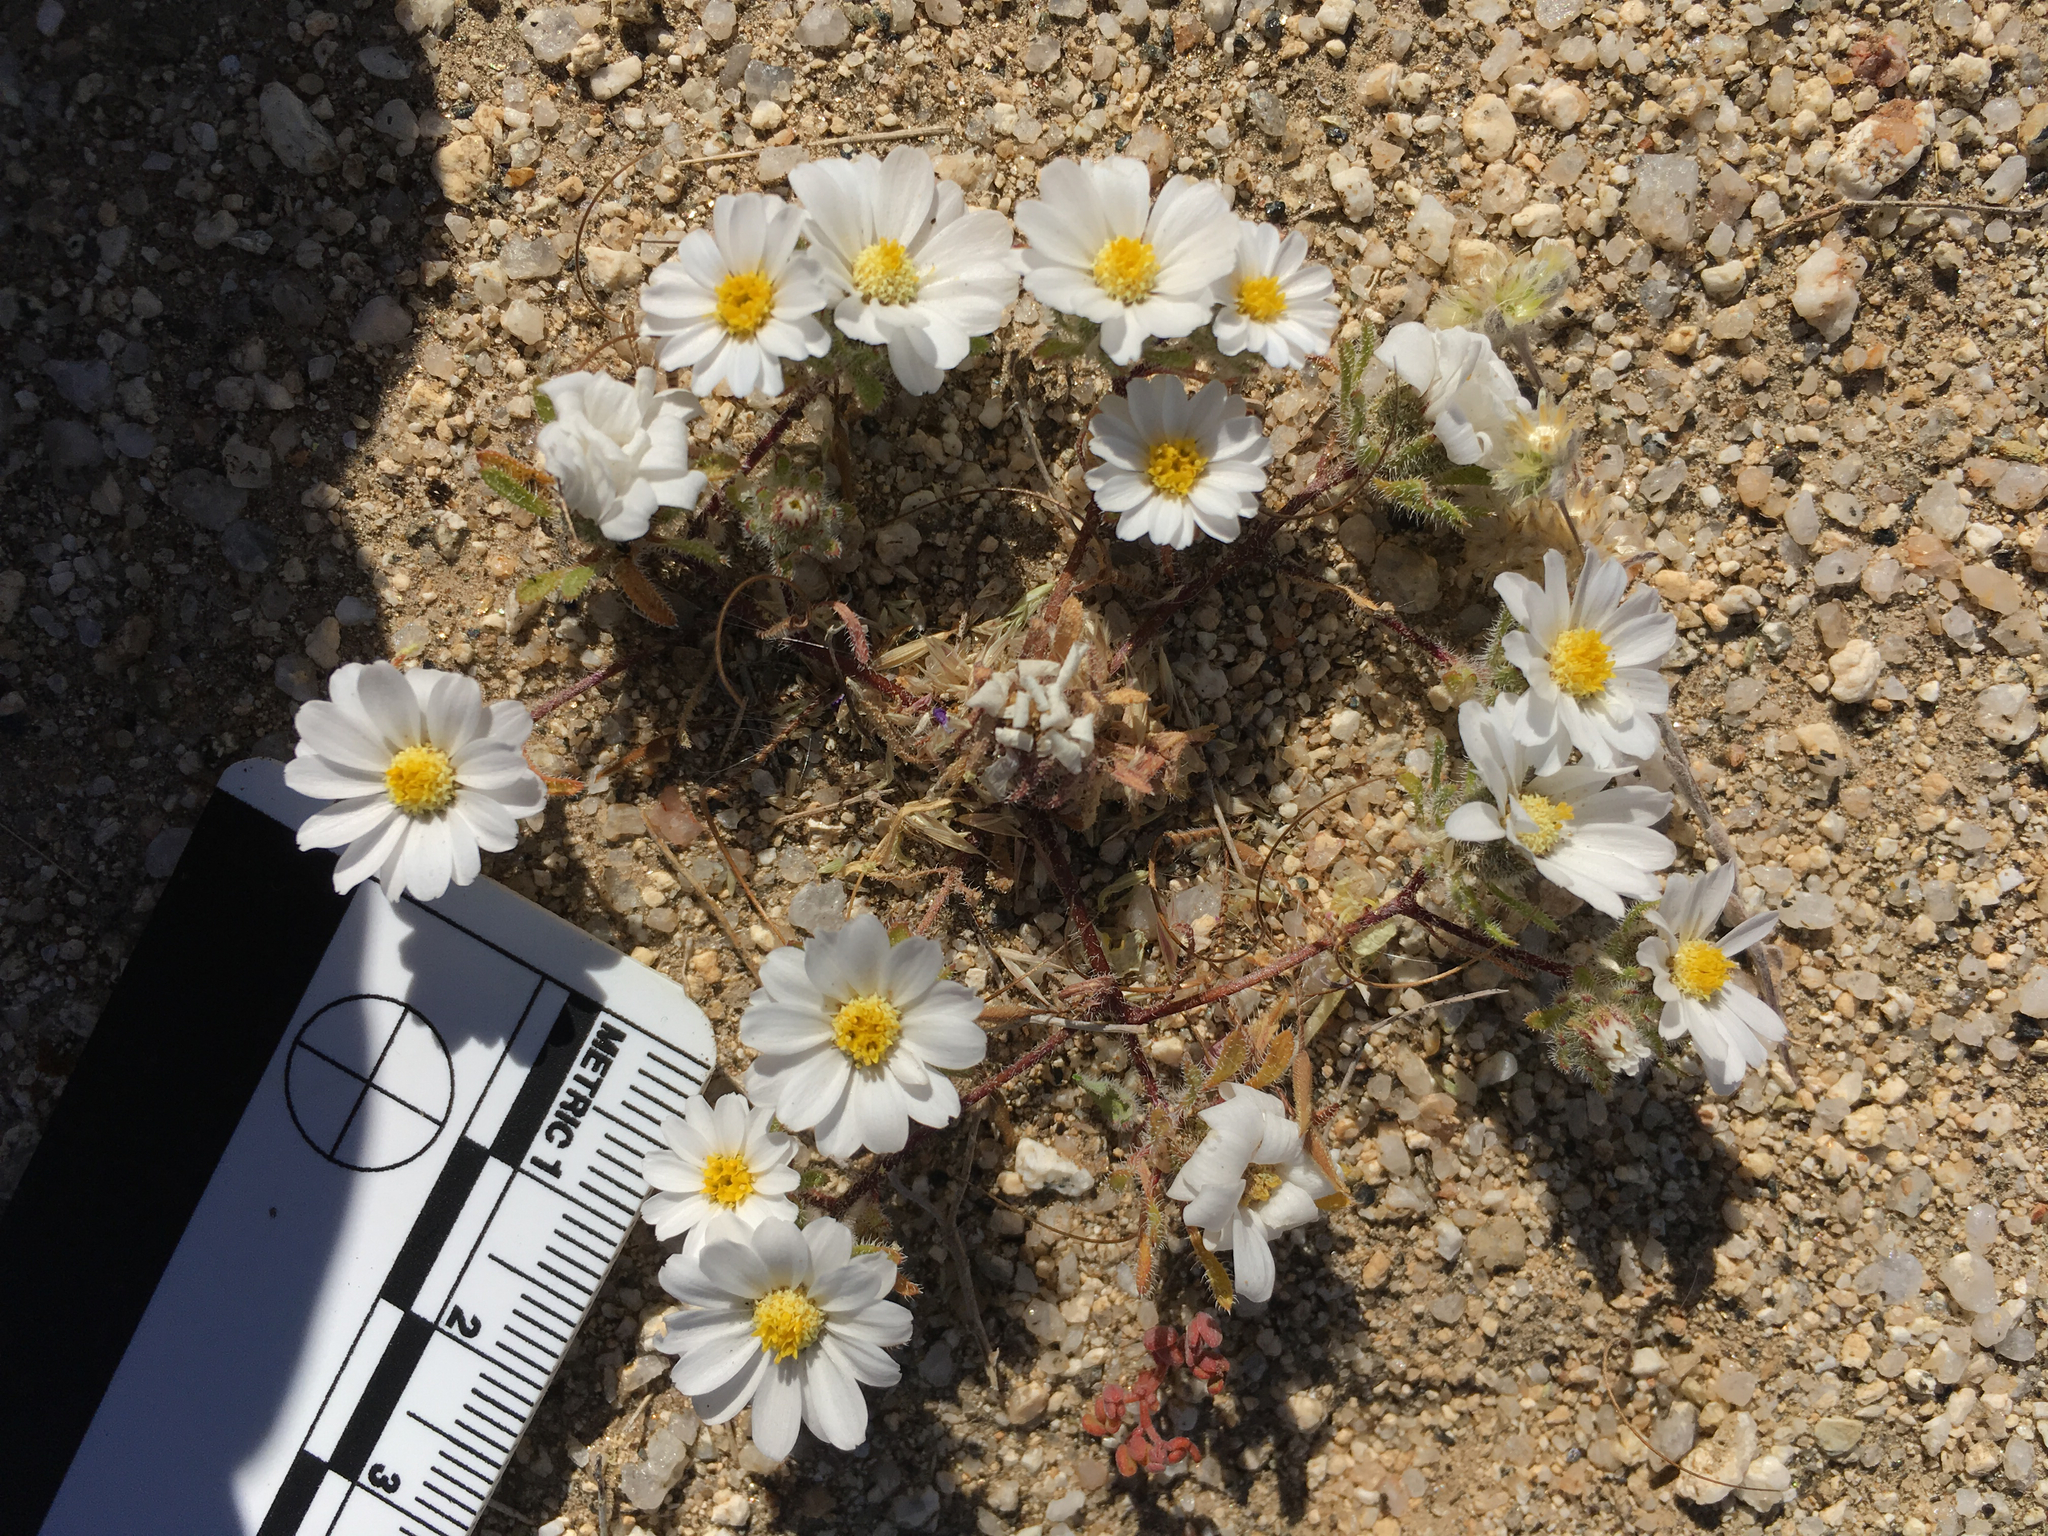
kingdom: Plantae
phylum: Tracheophyta
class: Magnoliopsida
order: Asterales
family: Asteraceae
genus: Monoptilon
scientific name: Monoptilon bellioides
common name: Bristly desertstar
